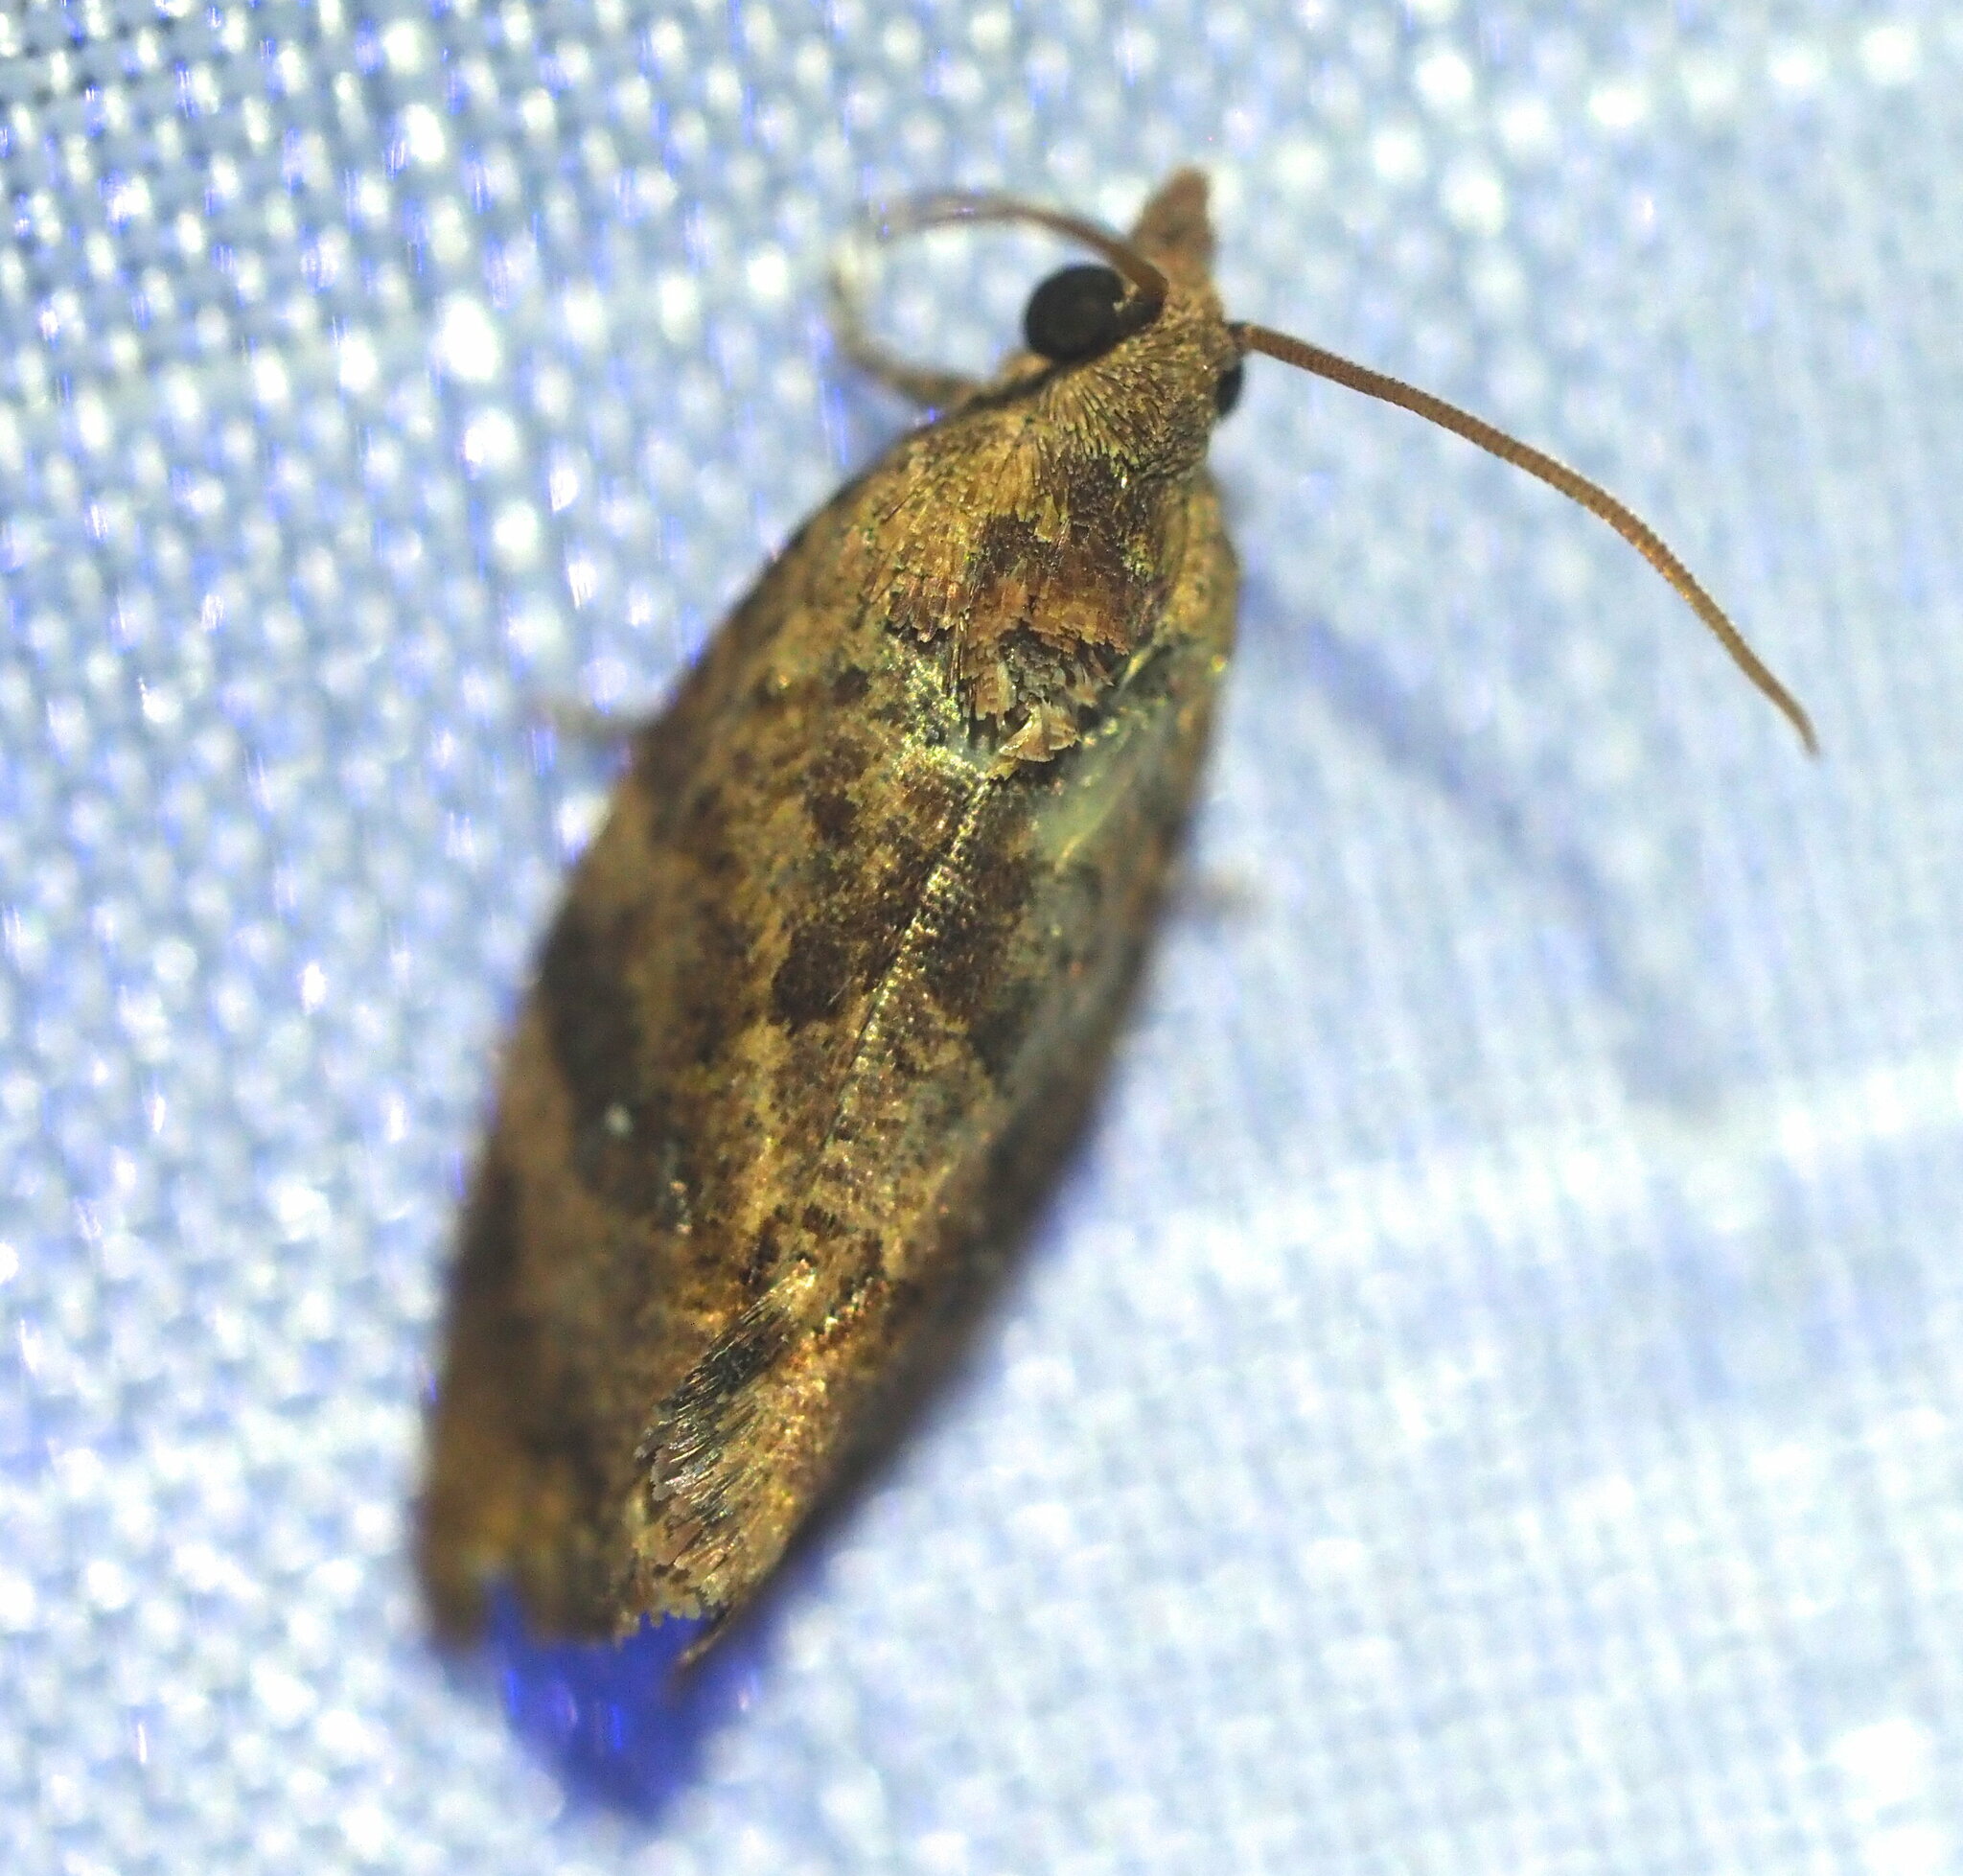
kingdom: Animalia
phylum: Arthropoda
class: Insecta
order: Lepidoptera
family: Tortricidae
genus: Cryptophlebia
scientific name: Cryptophlebia illepida
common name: Moth
